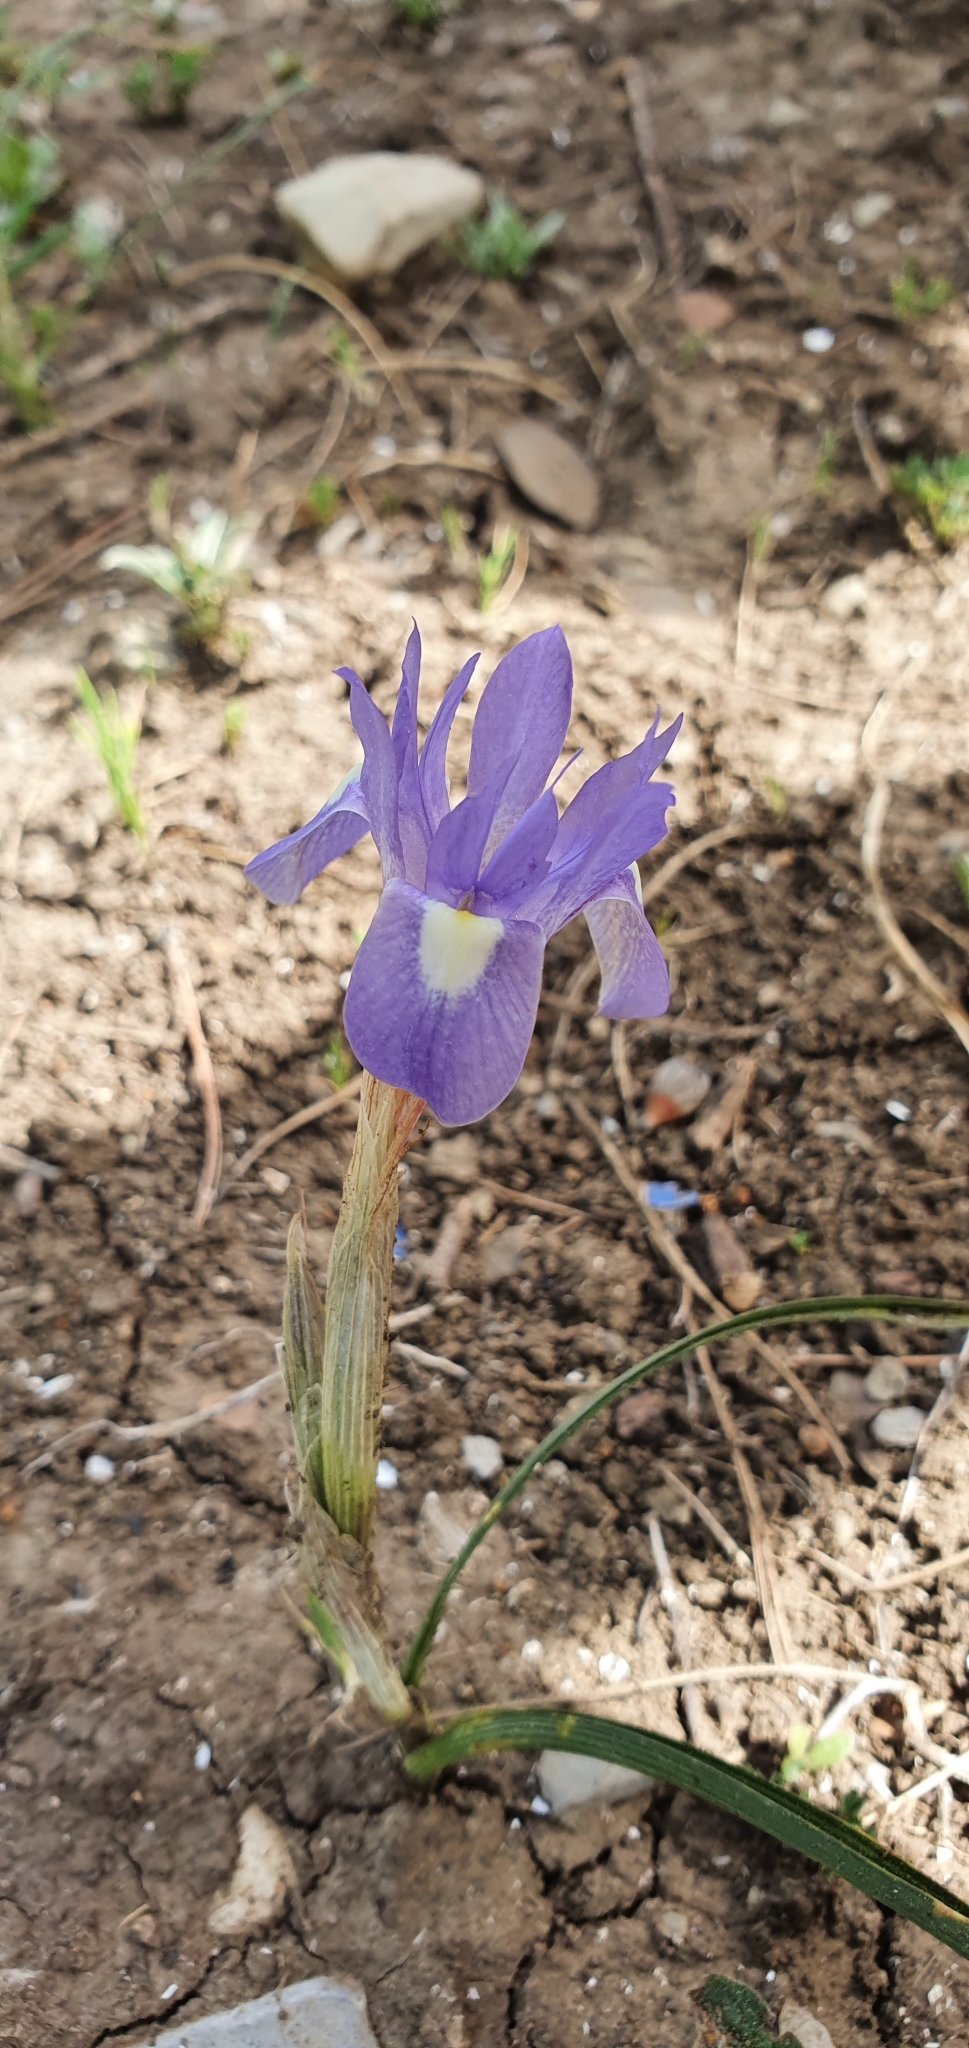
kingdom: Plantae
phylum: Tracheophyta
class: Liliopsida
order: Asparagales
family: Iridaceae
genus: Moraea
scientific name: Moraea sisyrinchium
